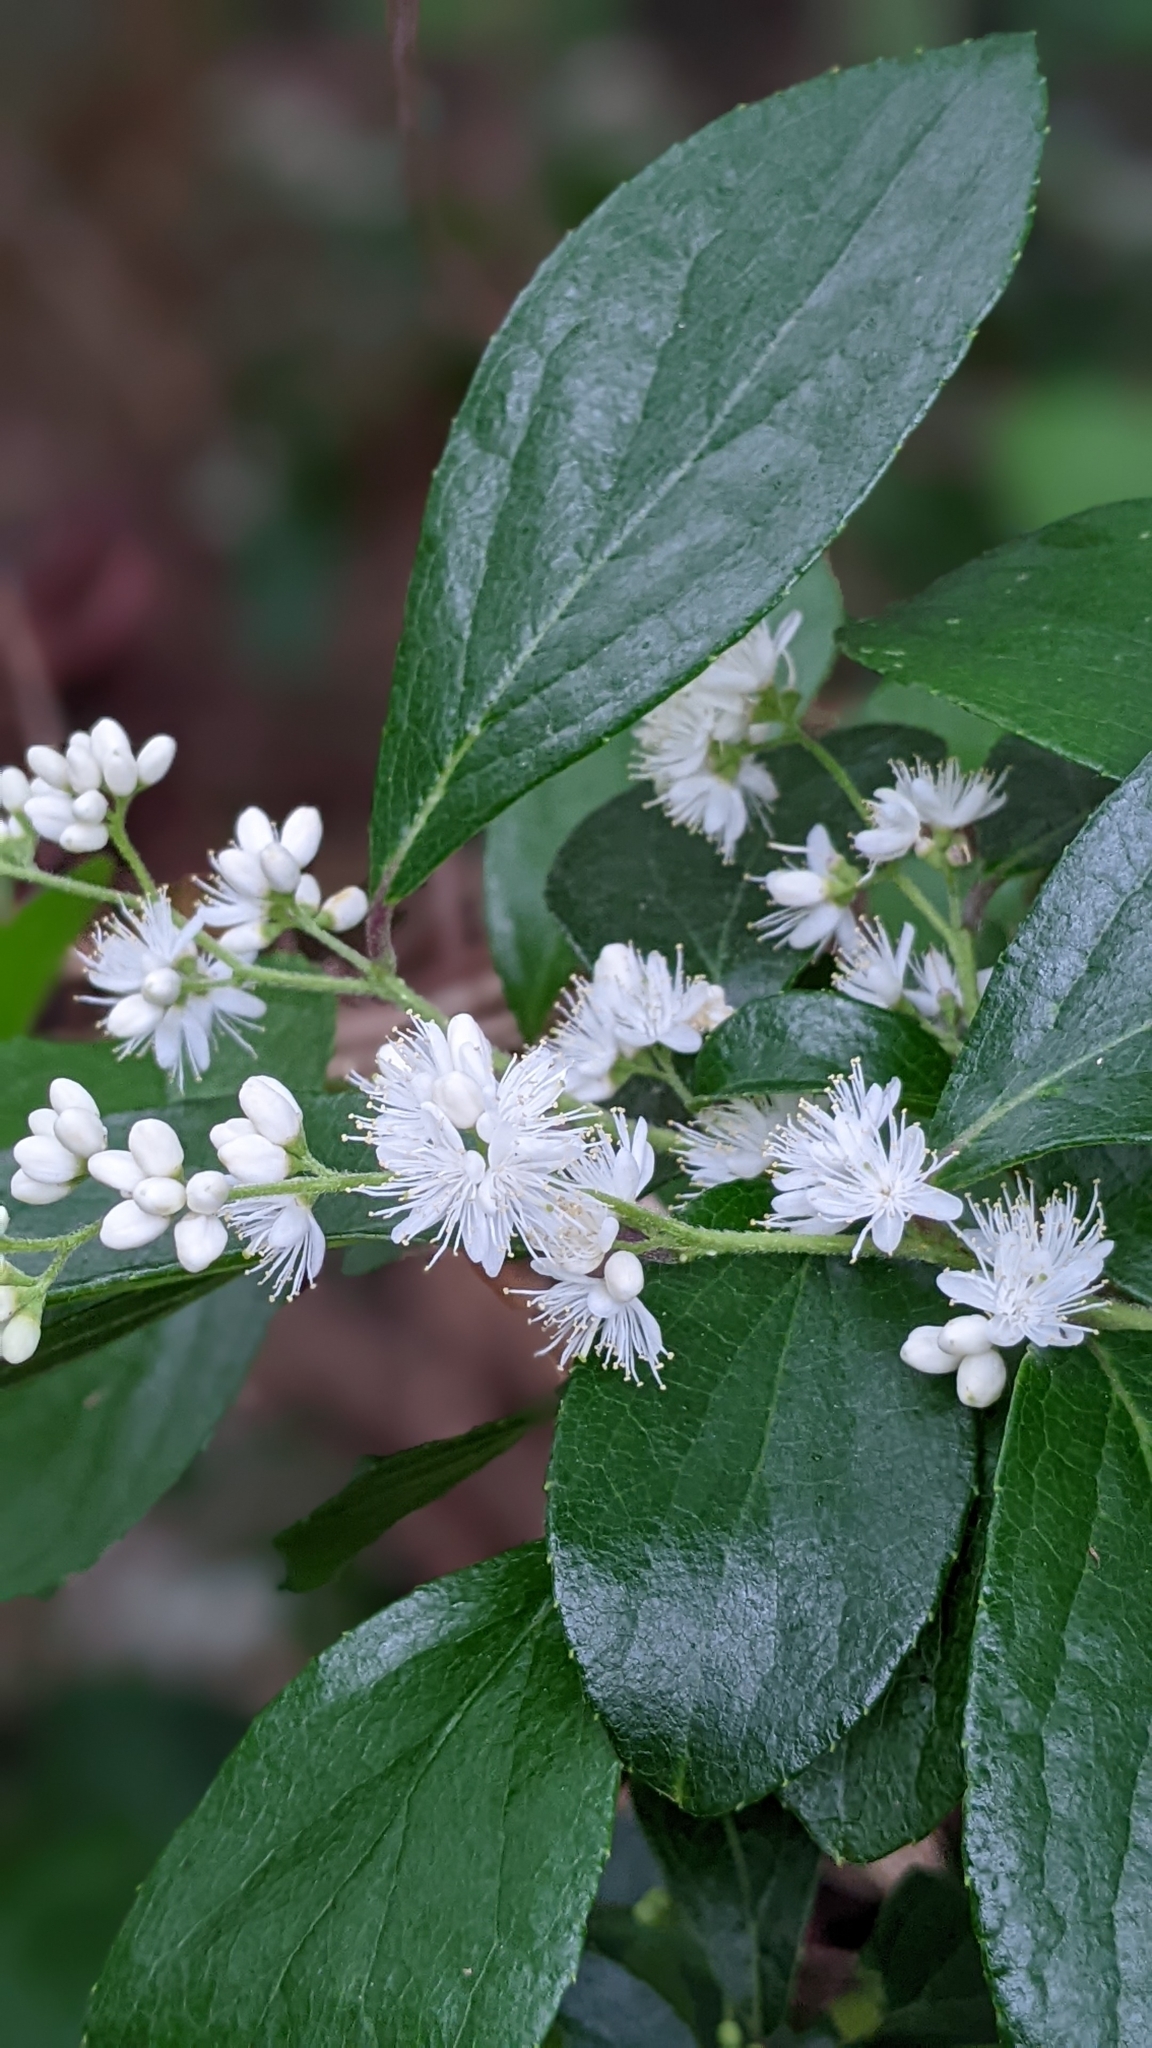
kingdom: Plantae
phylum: Tracheophyta
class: Magnoliopsida
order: Ericales
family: Symplocaceae
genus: Symplocos
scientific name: Symplocos paniculata
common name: Sapphire-berry
